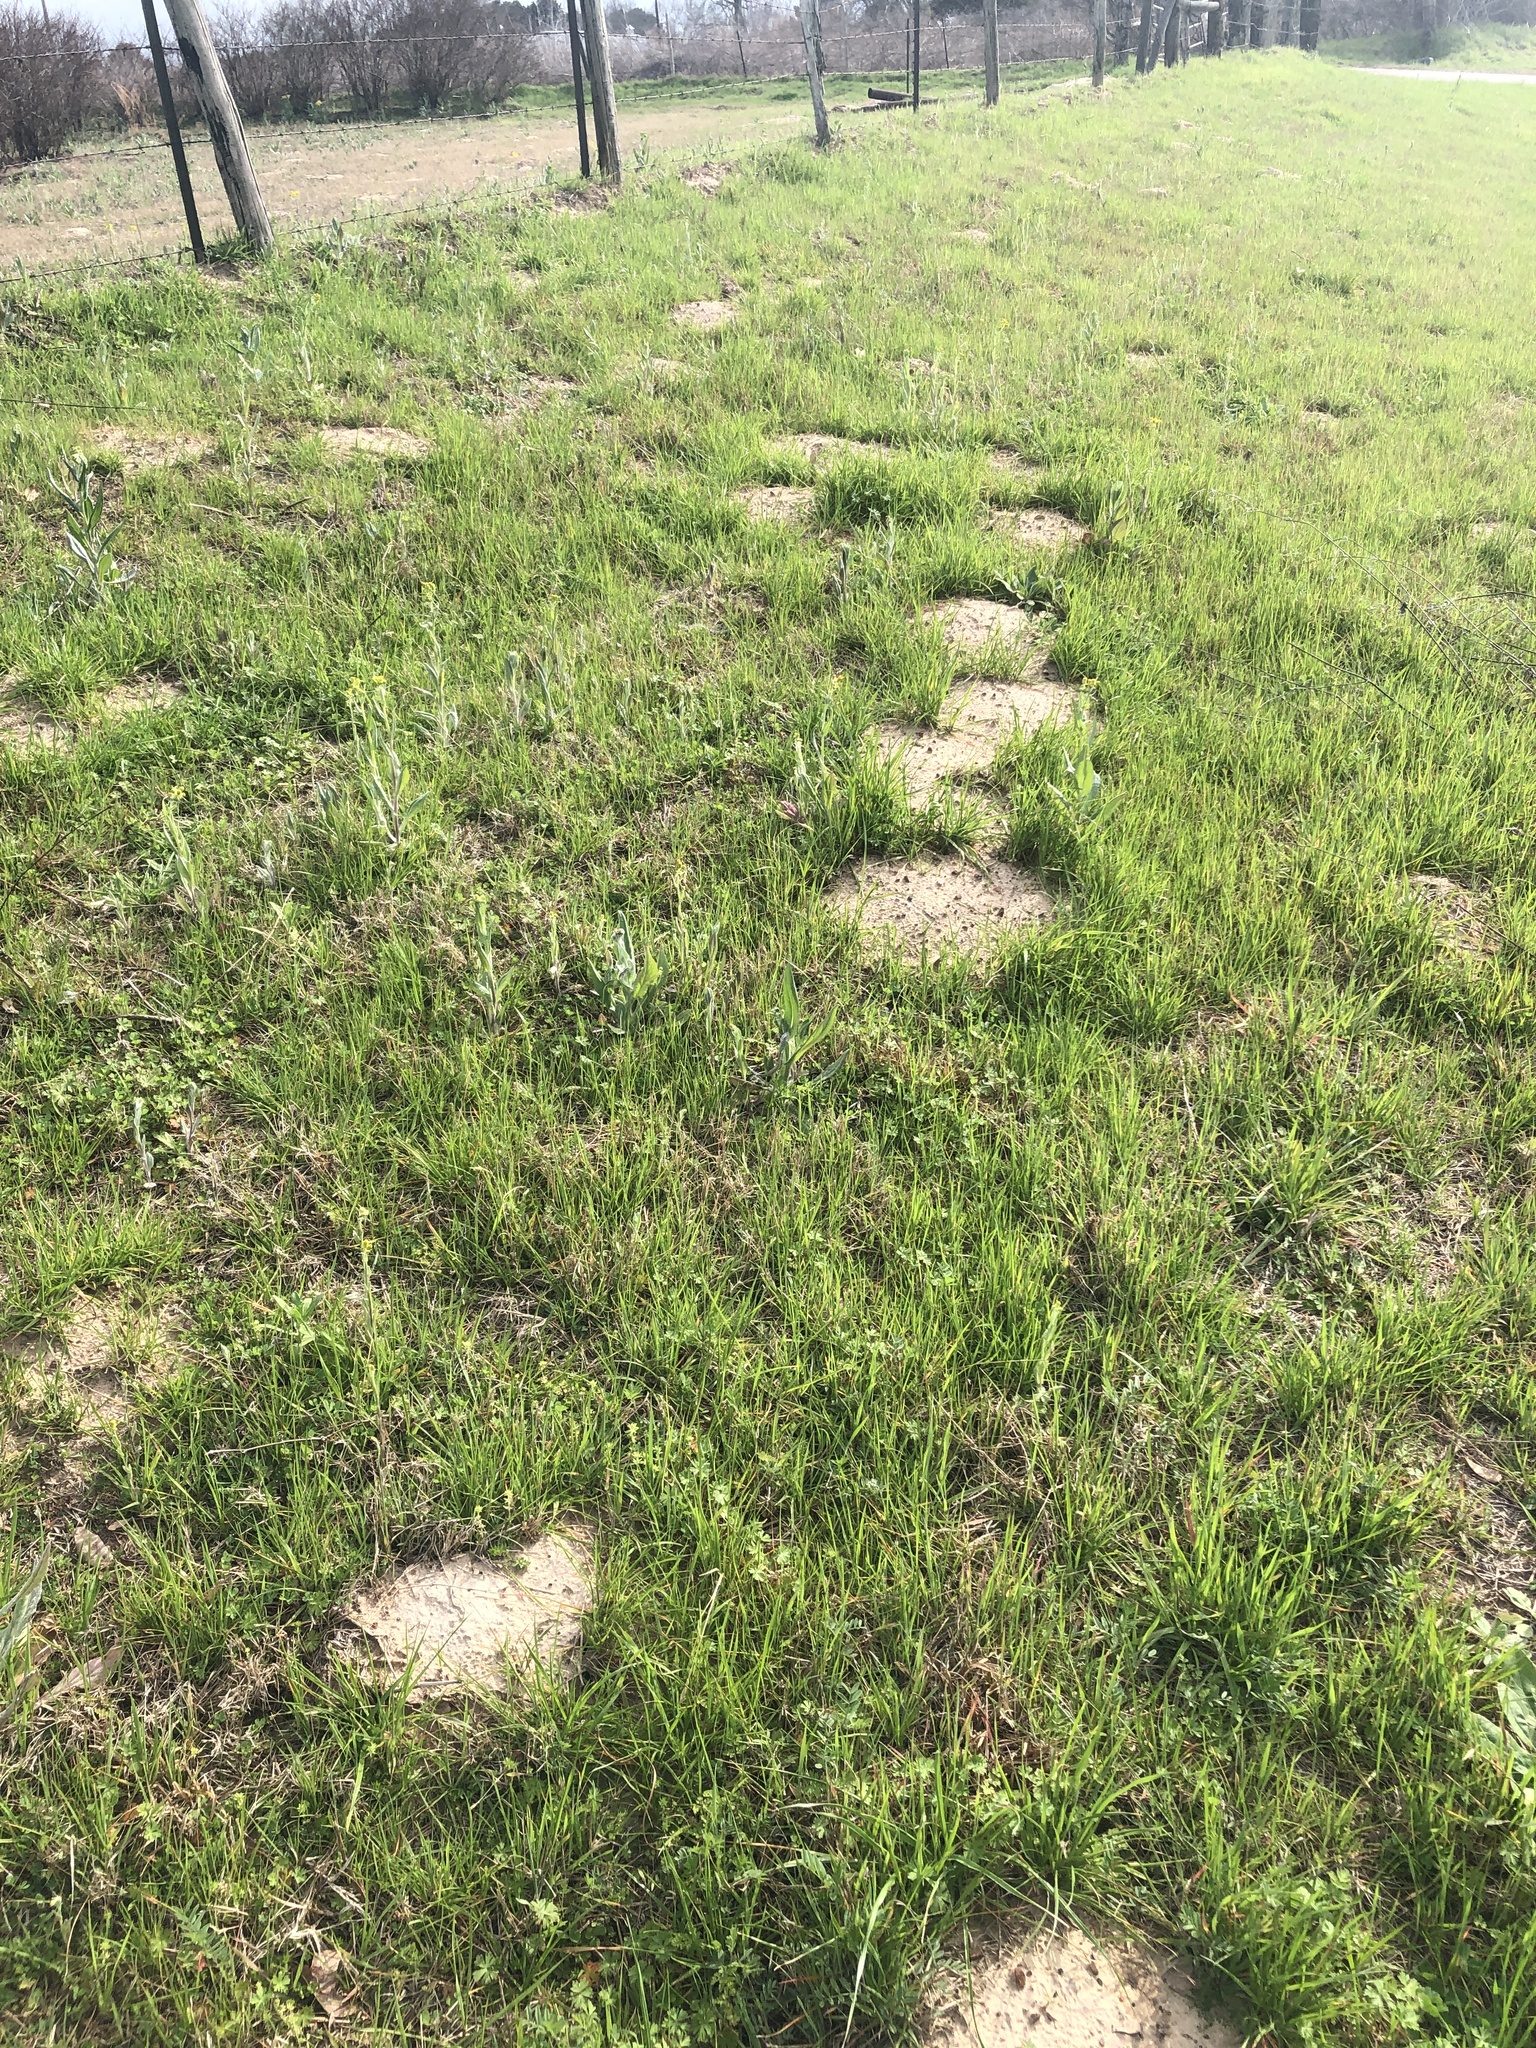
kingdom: Animalia
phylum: Chordata
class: Mammalia
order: Rodentia
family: Geomyidae
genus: Geomys
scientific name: Geomys breviceps
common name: Baird's pocket gopher
